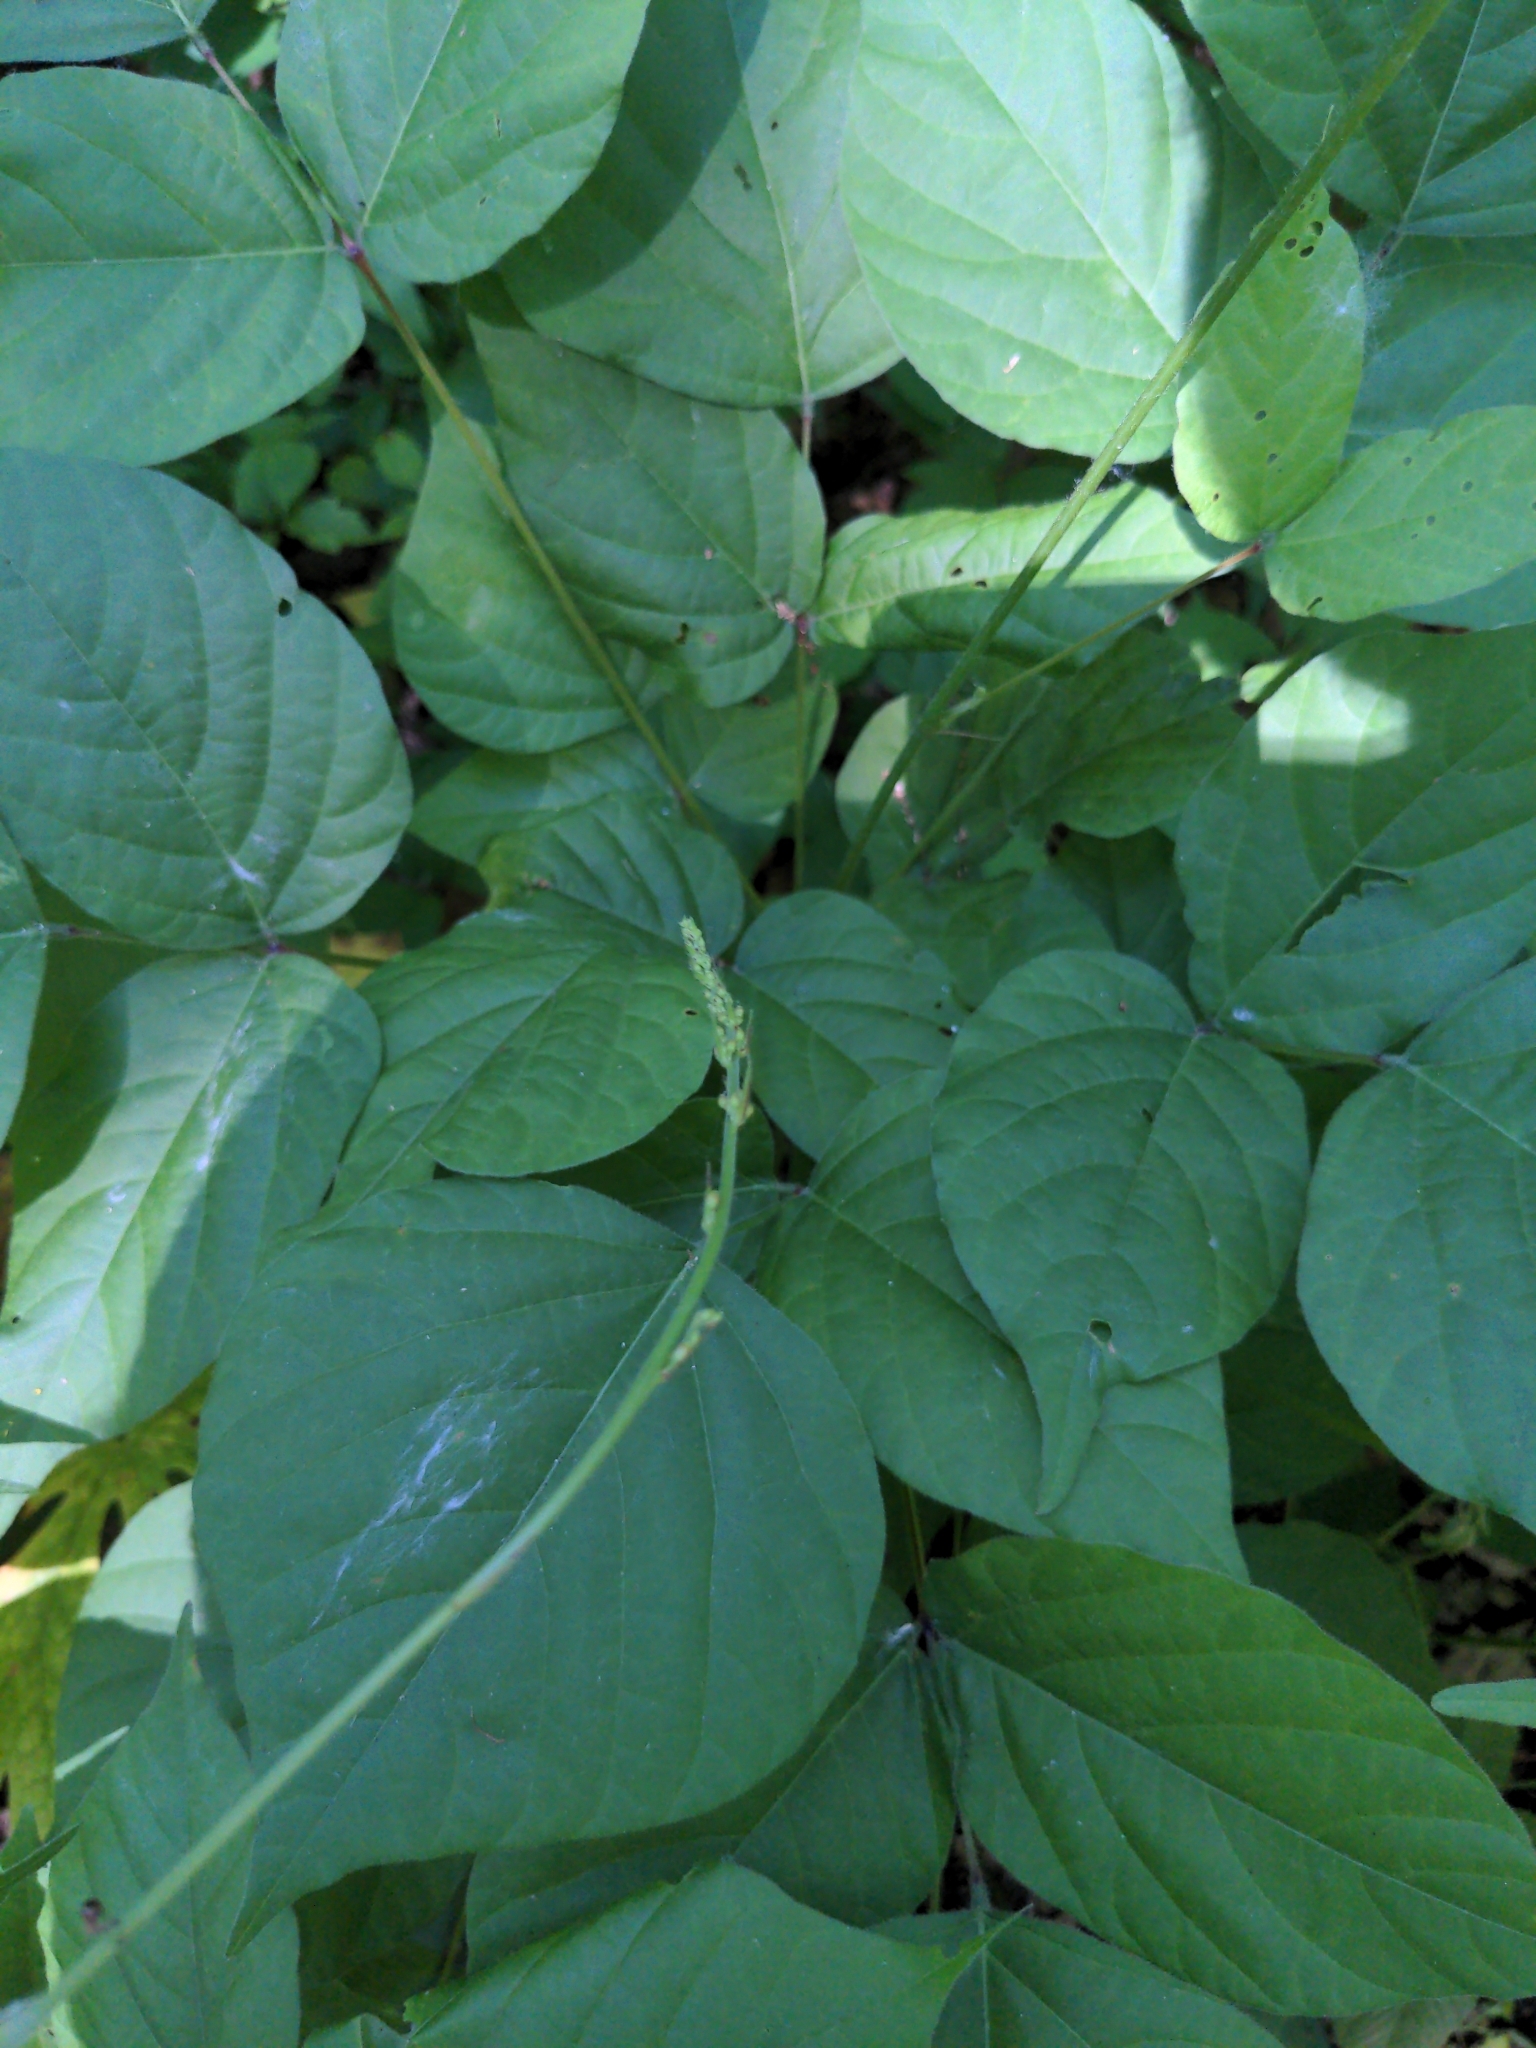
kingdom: Plantae
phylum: Tracheophyta
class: Magnoliopsida
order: Fabales
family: Fabaceae
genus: Hylodesmum
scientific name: Hylodesmum glutinosum
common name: Clustered-leaved tick-trefoil
